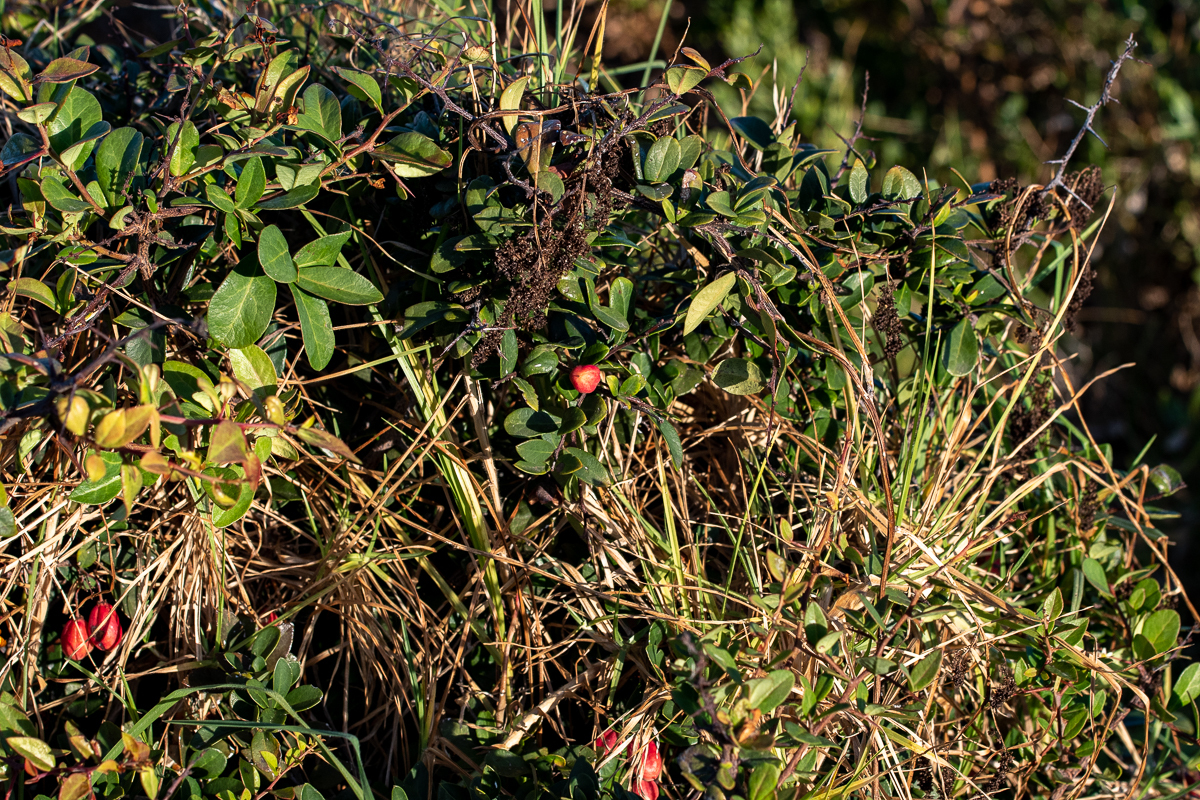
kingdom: Plantae
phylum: Tracheophyta
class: Magnoliopsida
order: Celastrales
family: Celastraceae
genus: Putterlickia
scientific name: Putterlickia pyracantha
